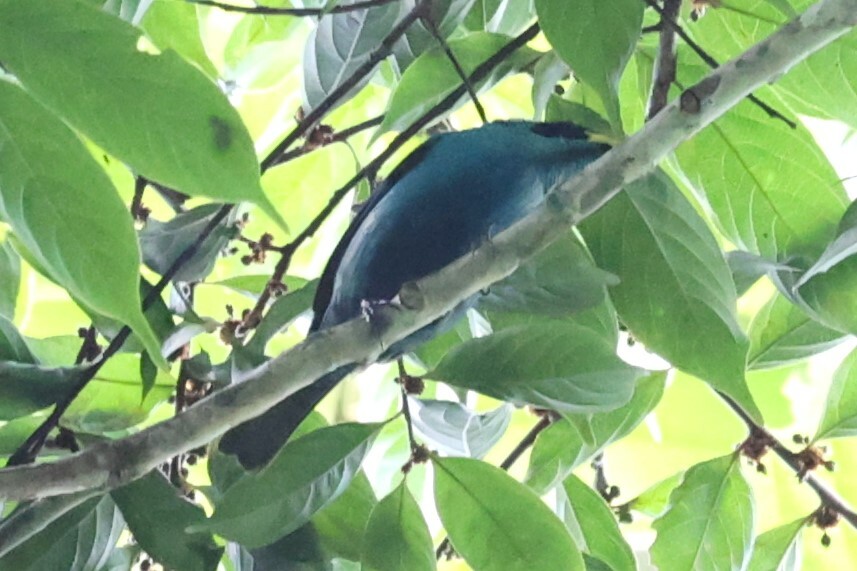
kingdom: Animalia
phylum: Chordata
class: Aves
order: Passeriformes
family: Thraupidae
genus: Chlorophanes
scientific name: Chlorophanes spiza
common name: Green honeycreeper
